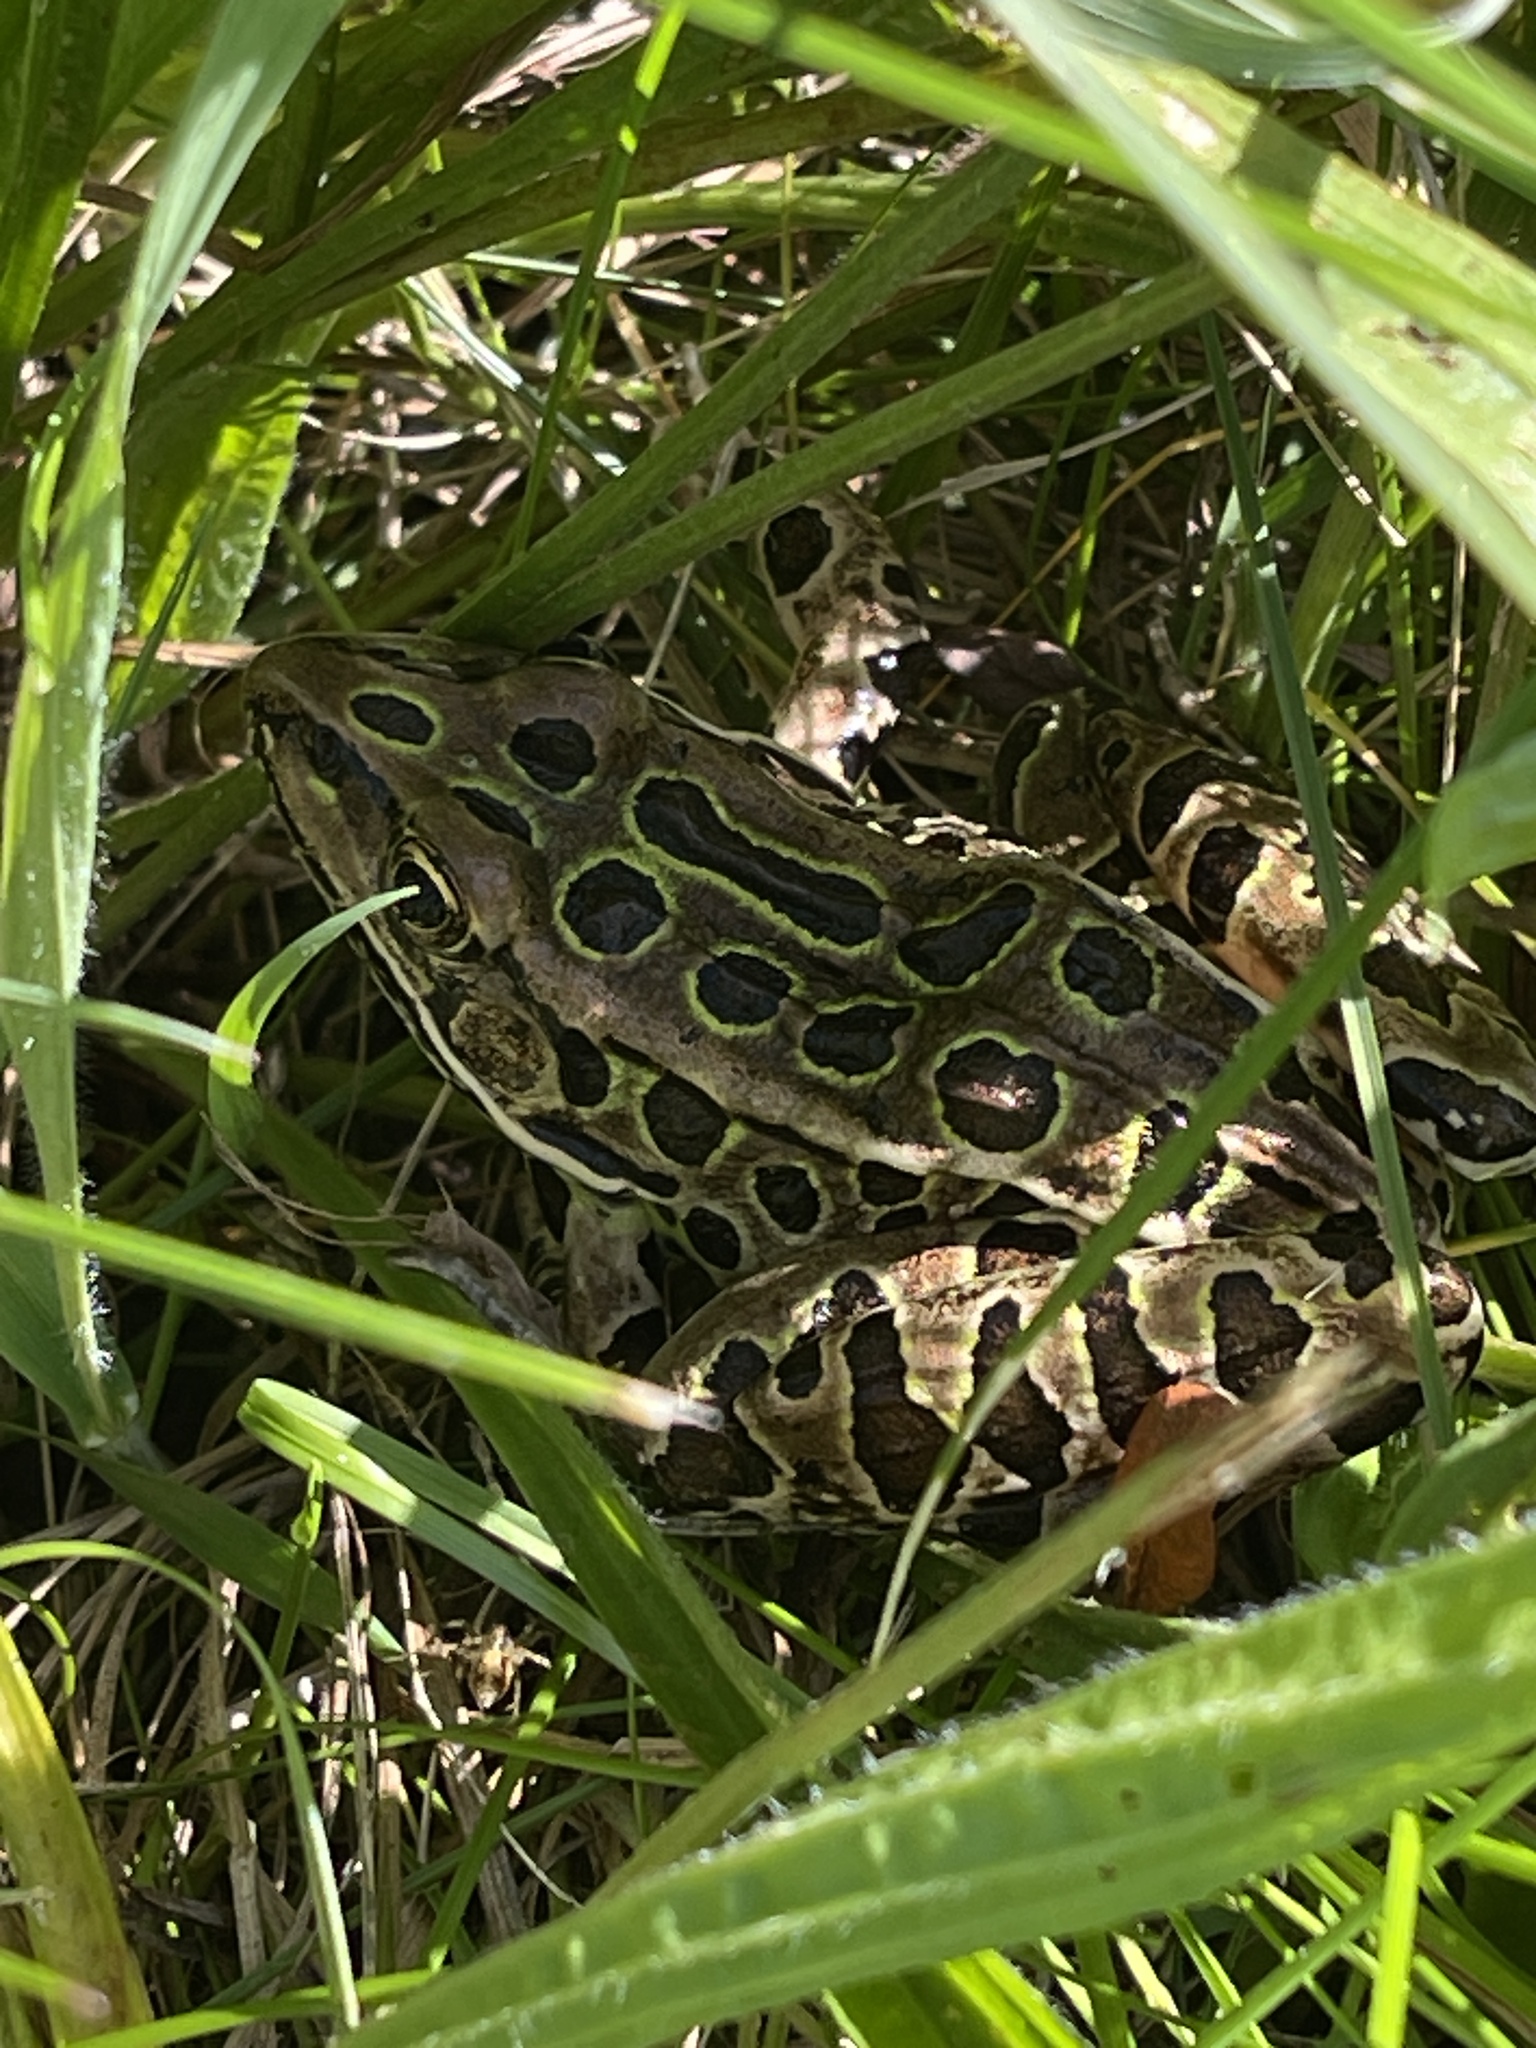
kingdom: Animalia
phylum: Chordata
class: Amphibia
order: Anura
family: Ranidae
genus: Lithobates
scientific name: Lithobates pipiens
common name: Northern leopard frog
